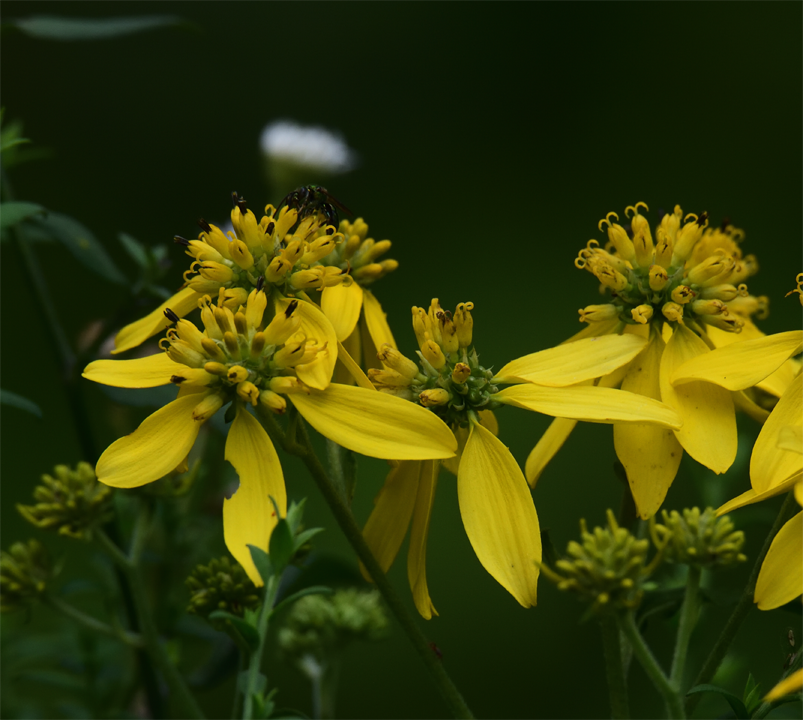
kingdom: Plantae
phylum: Tracheophyta
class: Magnoliopsida
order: Asterales
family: Asteraceae
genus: Verbesina
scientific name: Verbesina alternifolia
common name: Wingstem
